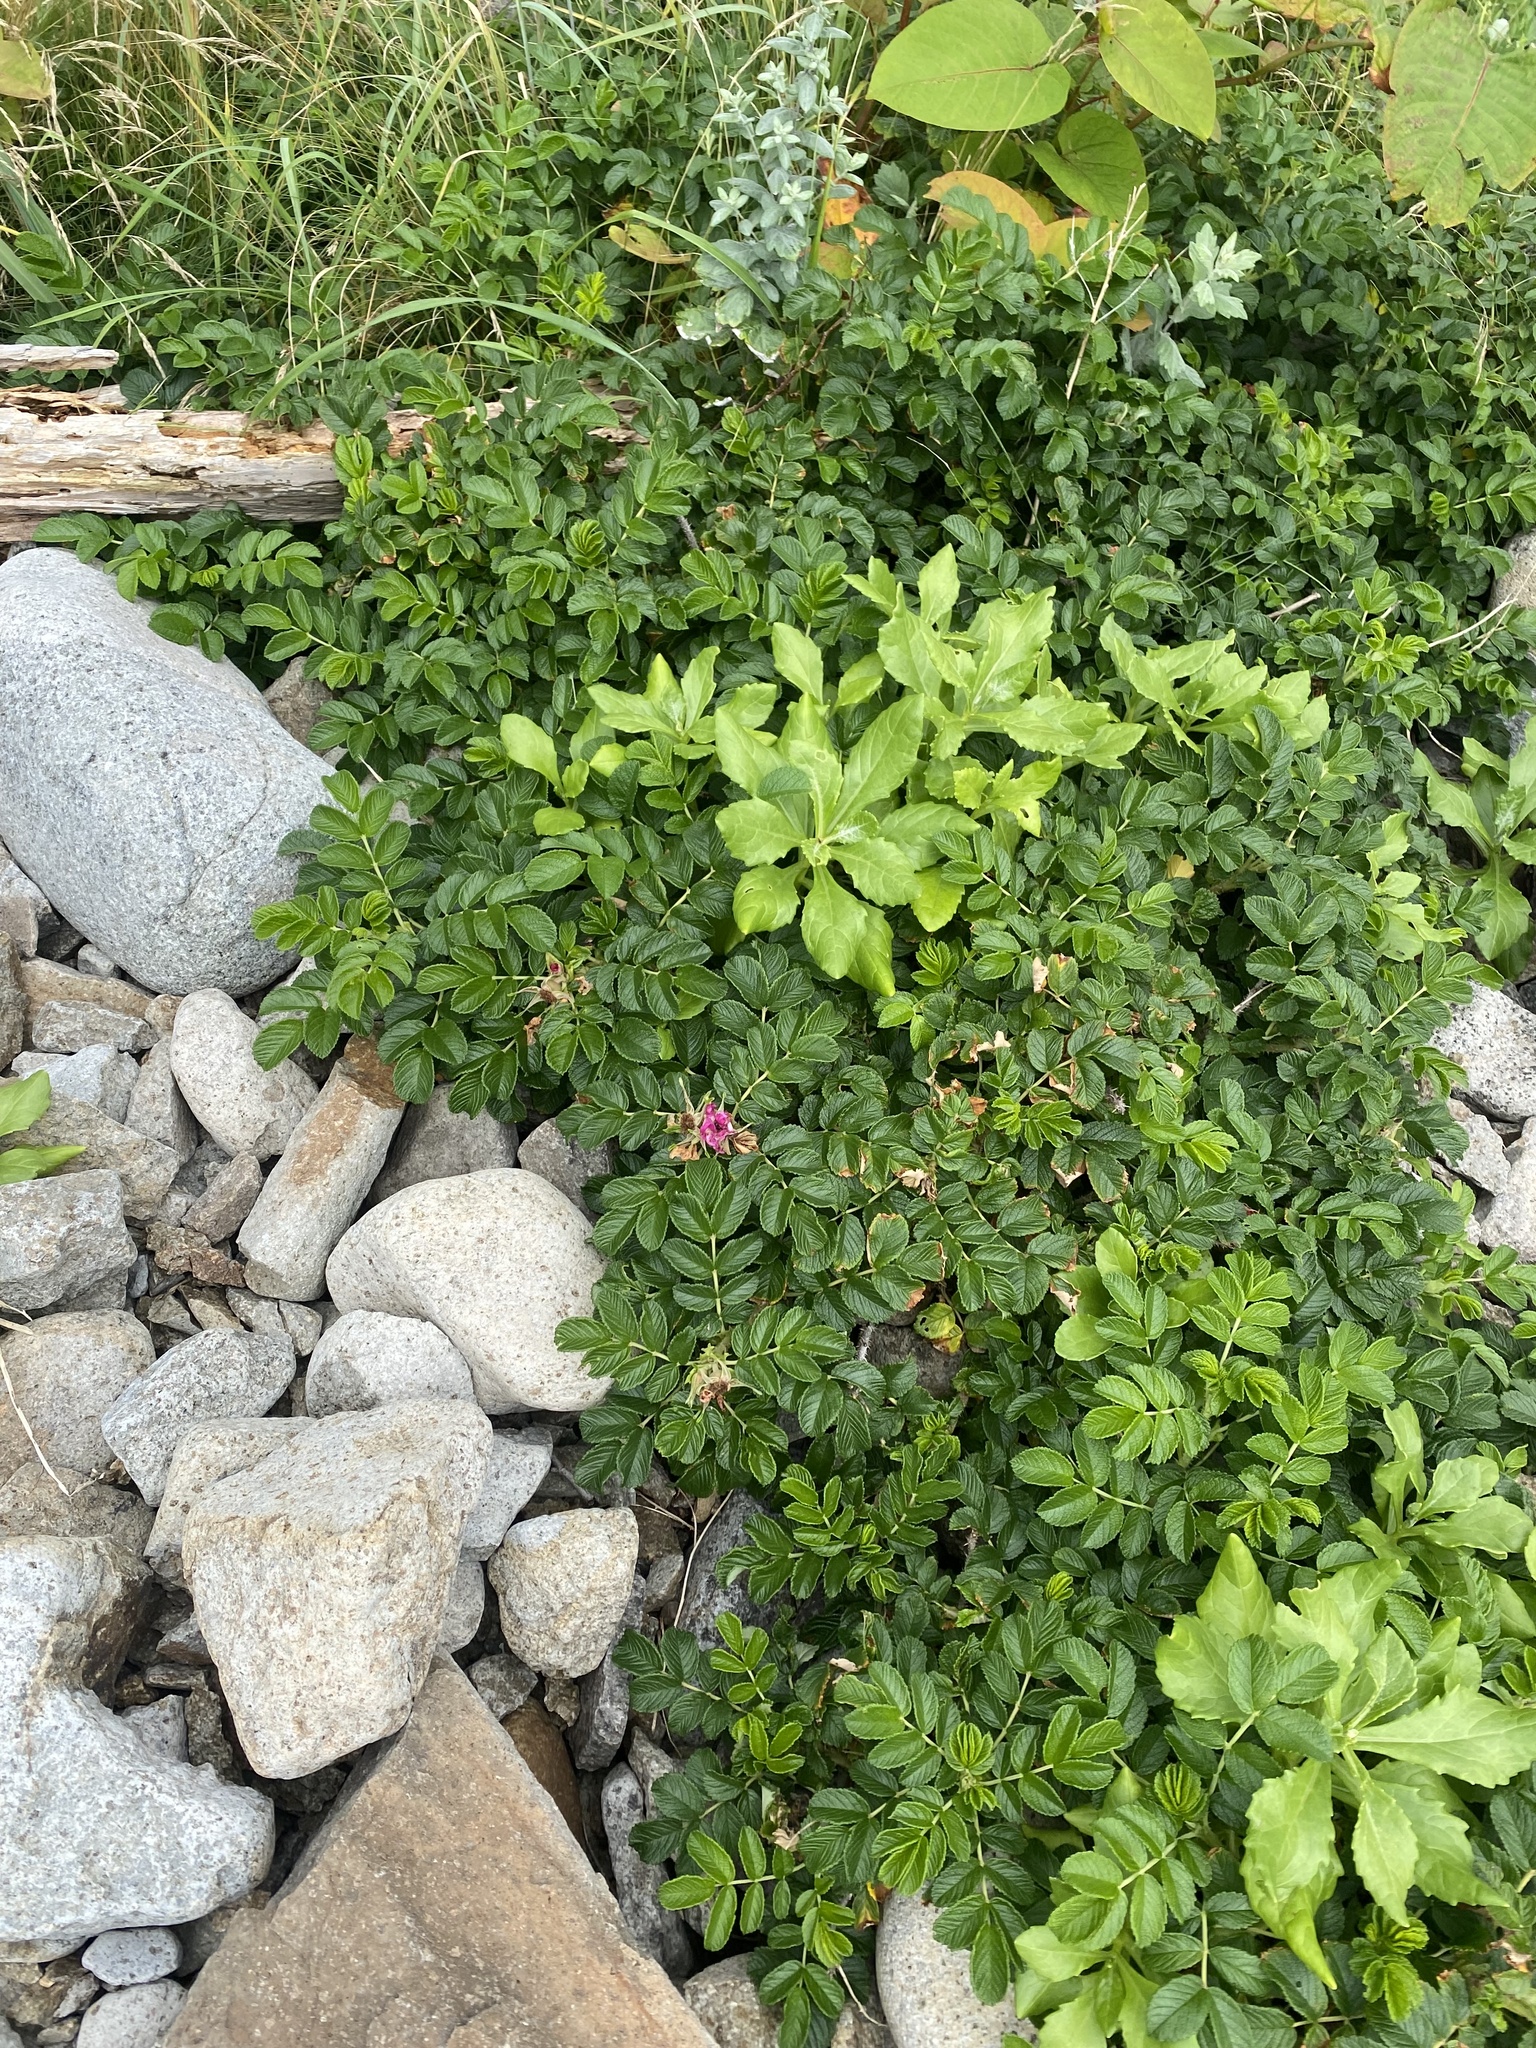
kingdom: Plantae
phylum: Tracheophyta
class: Magnoliopsida
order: Rosales
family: Rosaceae
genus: Rosa
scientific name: Rosa rugosa
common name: Japanese rose
